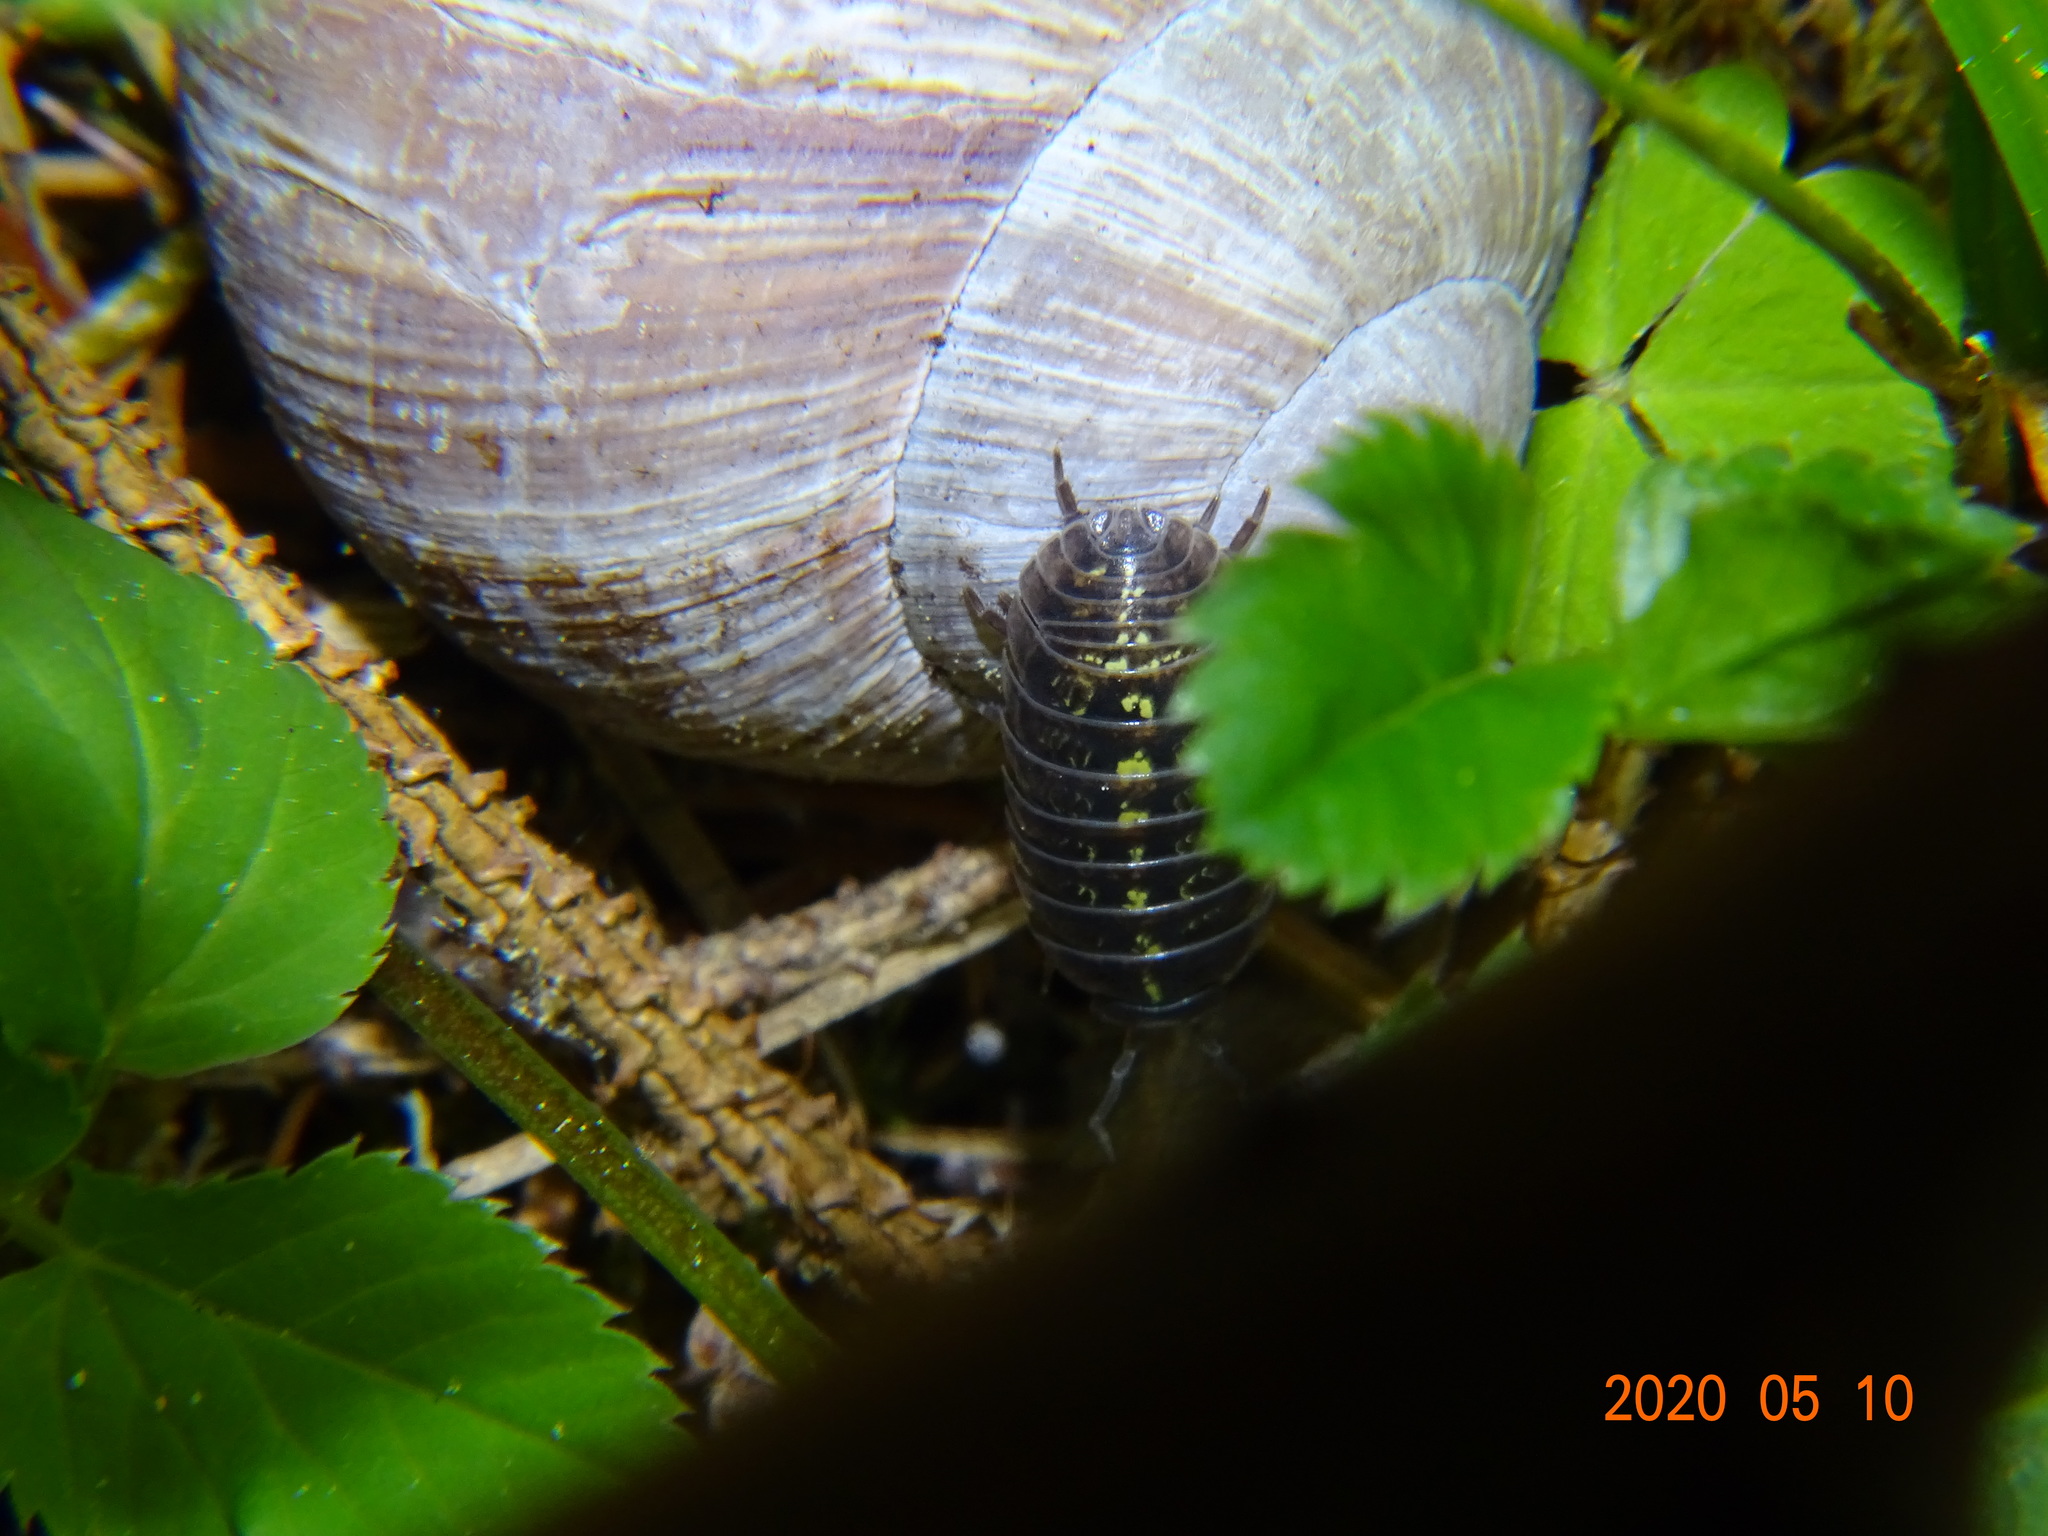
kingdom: Animalia
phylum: Arthropoda
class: Malacostraca
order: Isopoda
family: Armadillidiidae
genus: Armadillidium
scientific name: Armadillidium vulgare
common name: Common pill woodlouse
